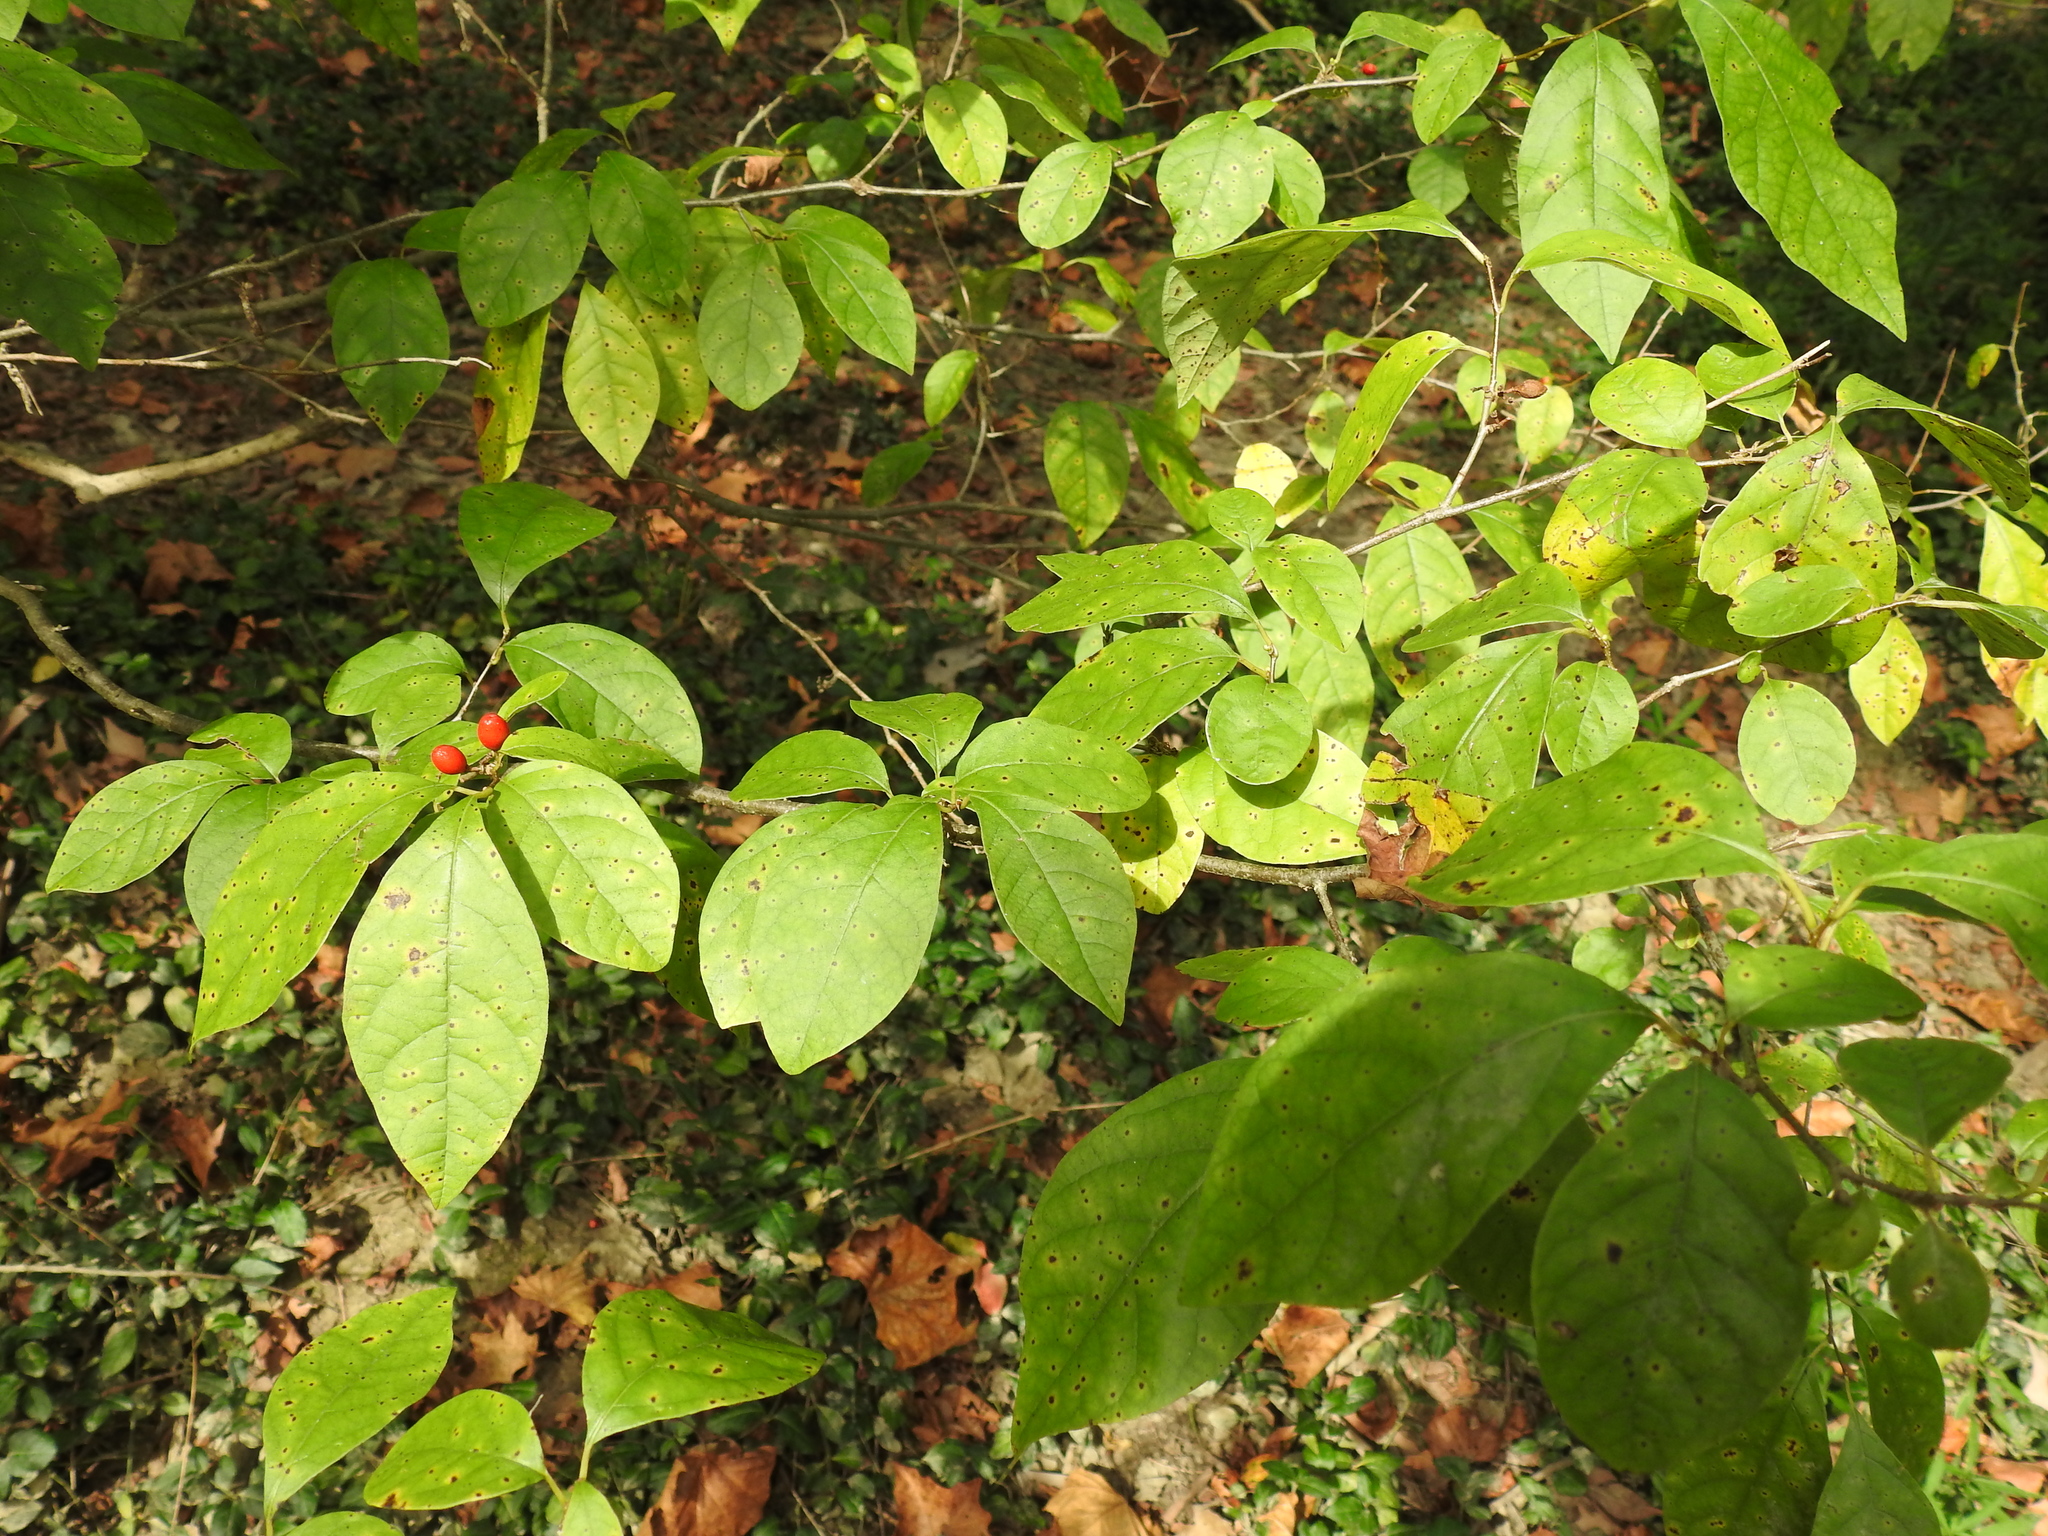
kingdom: Plantae
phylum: Tracheophyta
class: Magnoliopsida
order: Laurales
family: Lauraceae
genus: Lindera
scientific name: Lindera benzoin
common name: Spicebush
